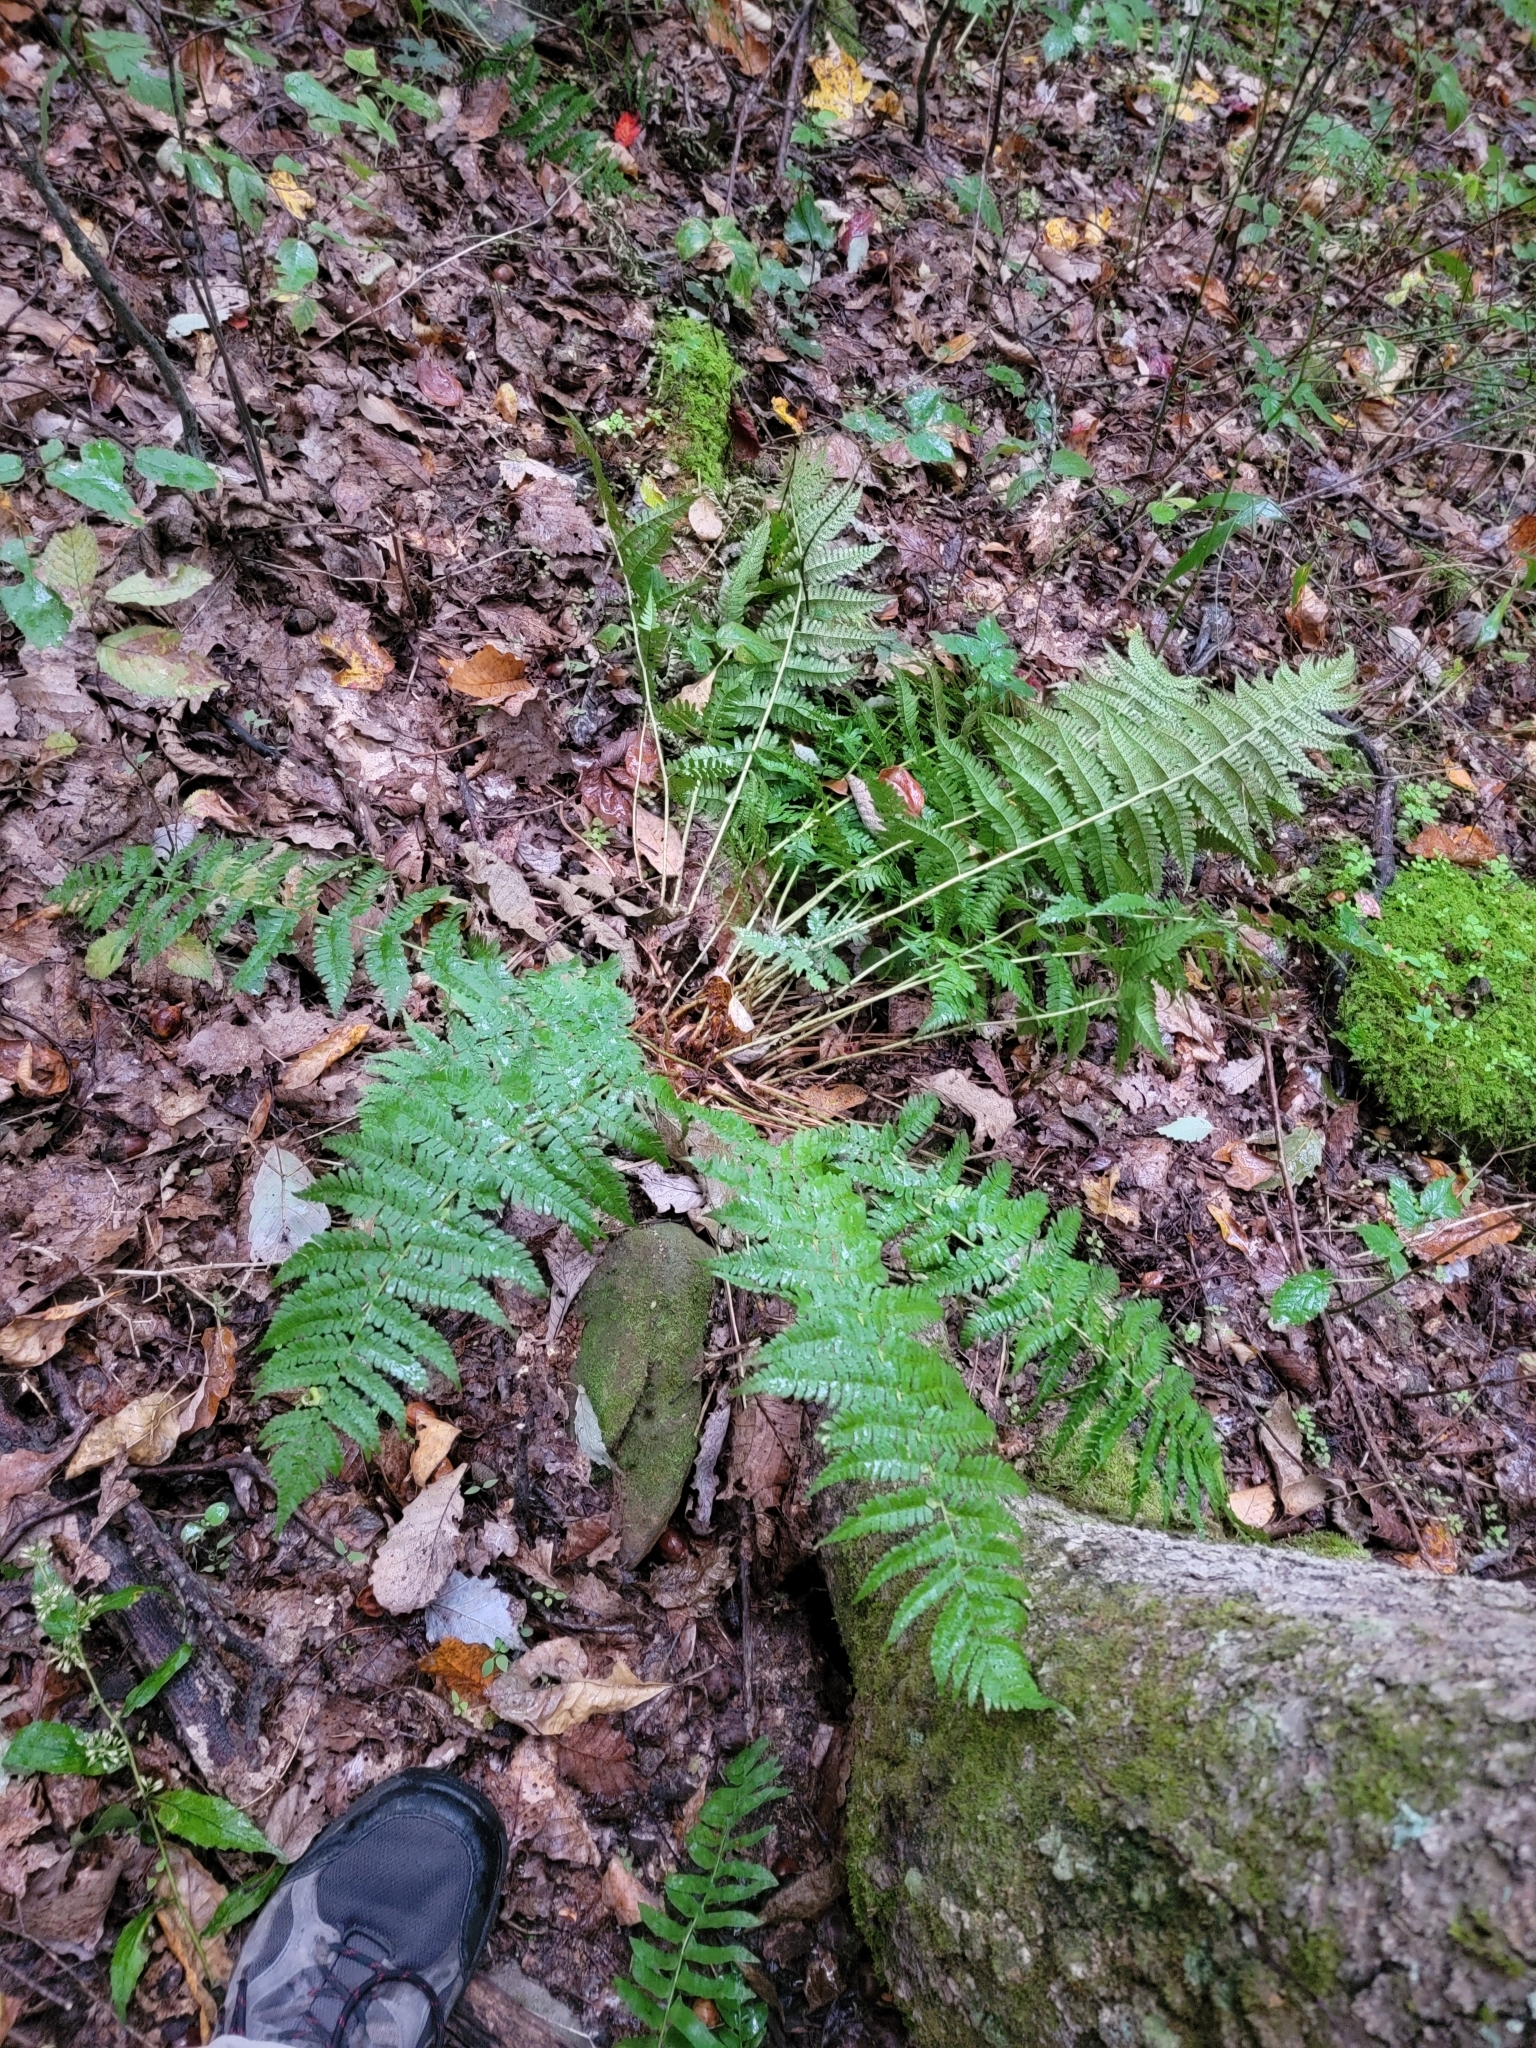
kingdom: Plantae
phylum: Tracheophyta
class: Polypodiopsida
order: Polypodiales
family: Dryopteridaceae
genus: Dryopteris
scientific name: Dryopteris marginalis
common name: Marginal wood fern
